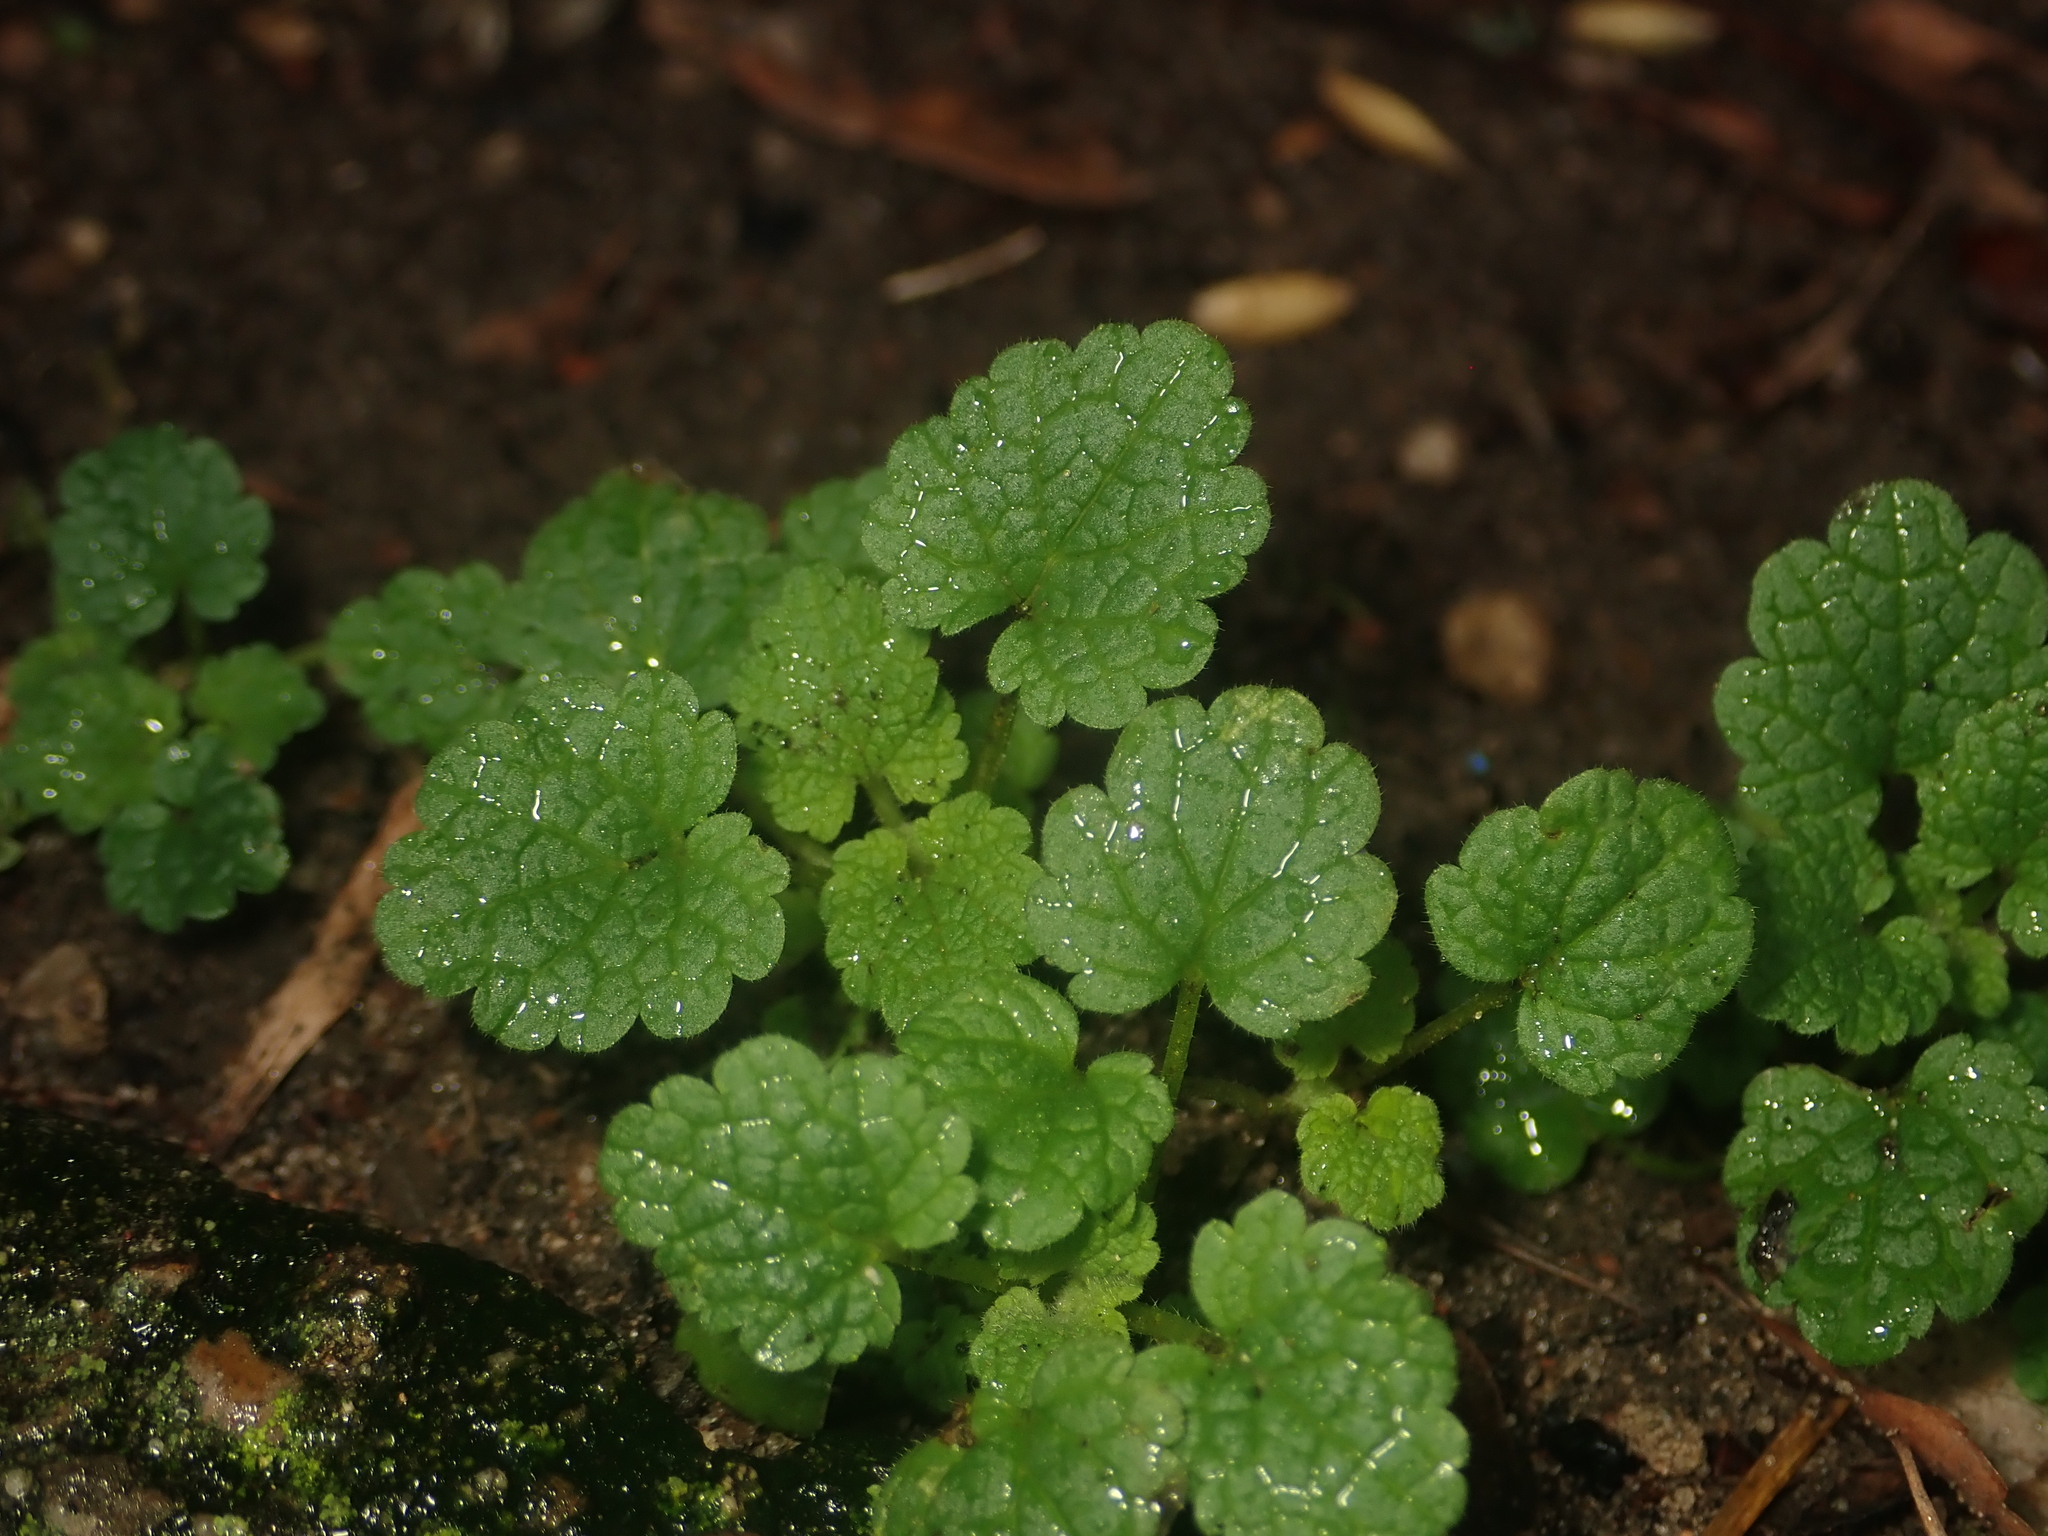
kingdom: Plantae
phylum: Tracheophyta
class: Magnoliopsida
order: Lamiales
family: Lamiaceae
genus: Lamium
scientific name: Lamium purpureum
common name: Red dead-nettle
